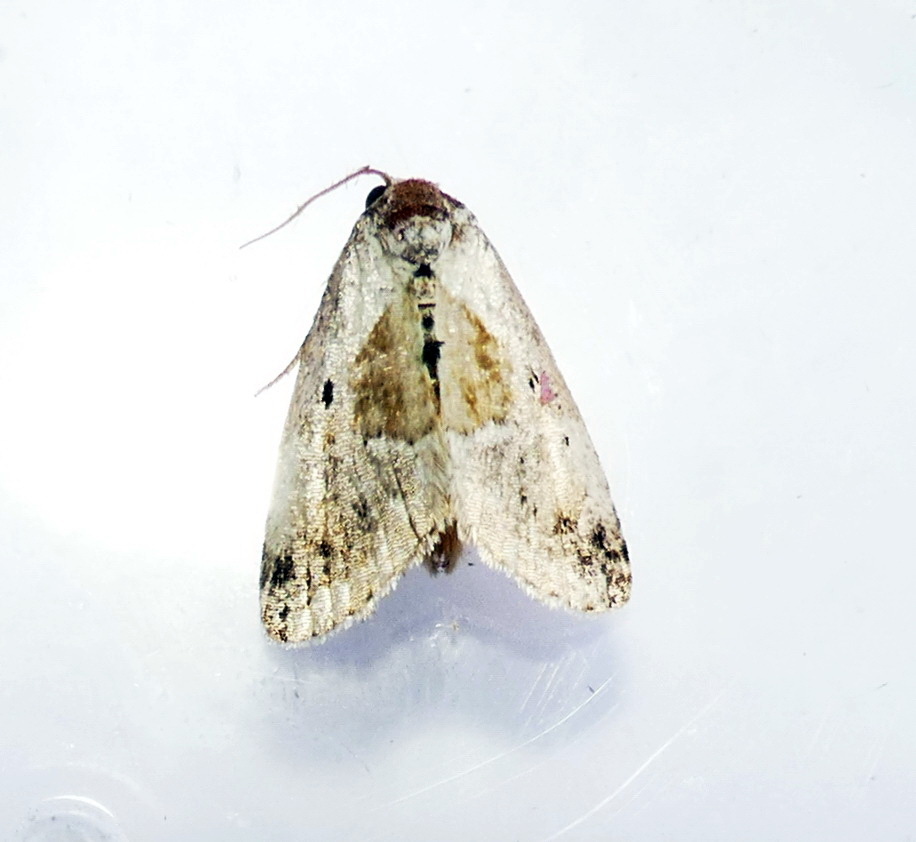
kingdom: Animalia
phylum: Arthropoda
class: Insecta
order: Lepidoptera
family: Noctuidae
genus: Maliattha
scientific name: Maliattha synochitis
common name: Black-dotted glyph
